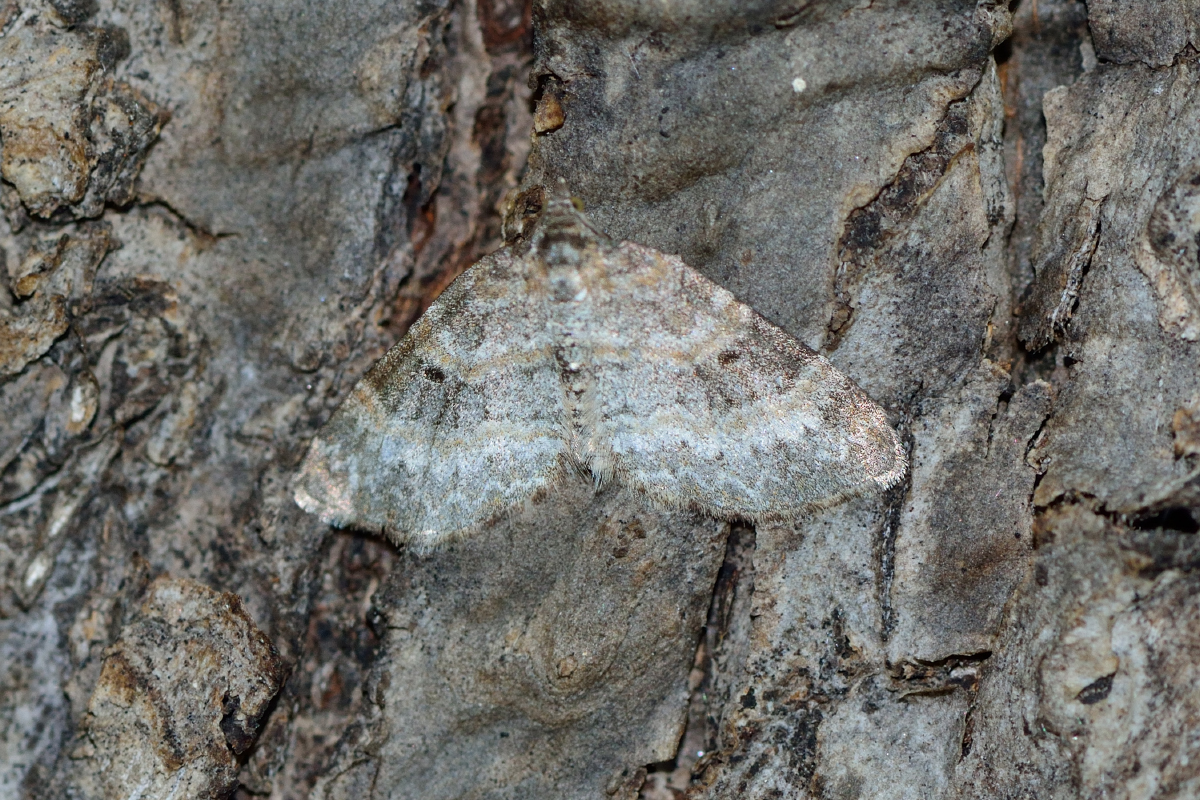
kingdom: Animalia
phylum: Arthropoda
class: Insecta
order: Lepidoptera
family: Geometridae
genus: Pterapherapteryx
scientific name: Pterapherapteryx sexalata
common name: Small seraphim
